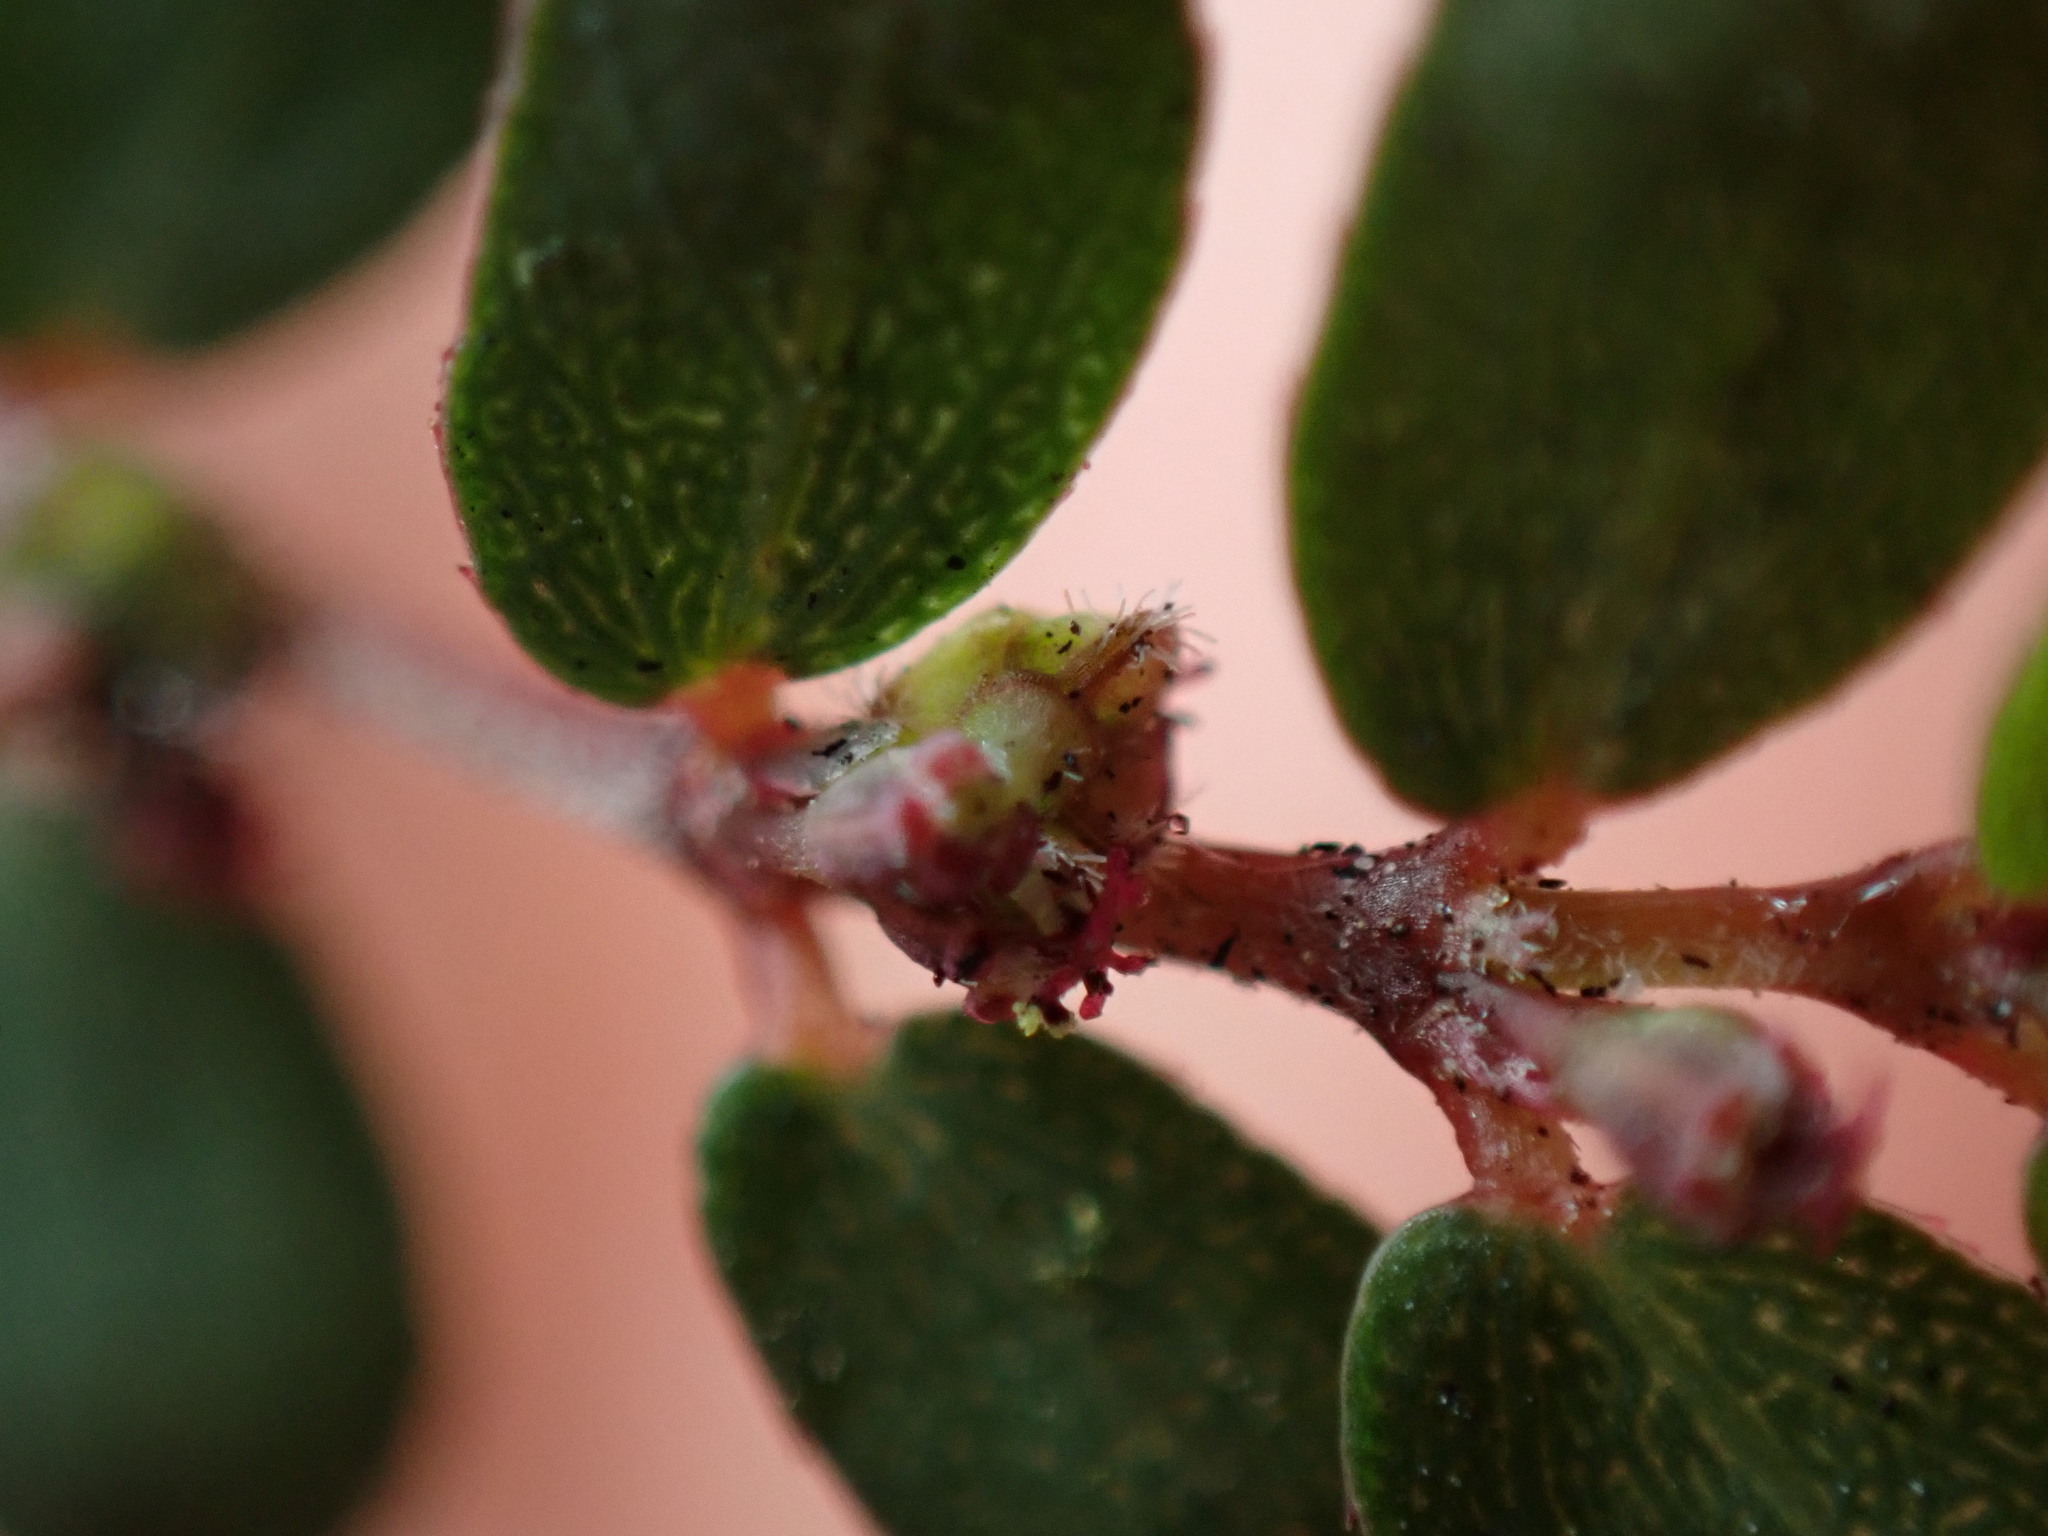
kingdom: Plantae
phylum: Tracheophyta
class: Magnoliopsida
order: Malpighiales
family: Euphorbiaceae
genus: Euphorbia
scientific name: Euphorbia prostrata
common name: Prostrate sandmat
